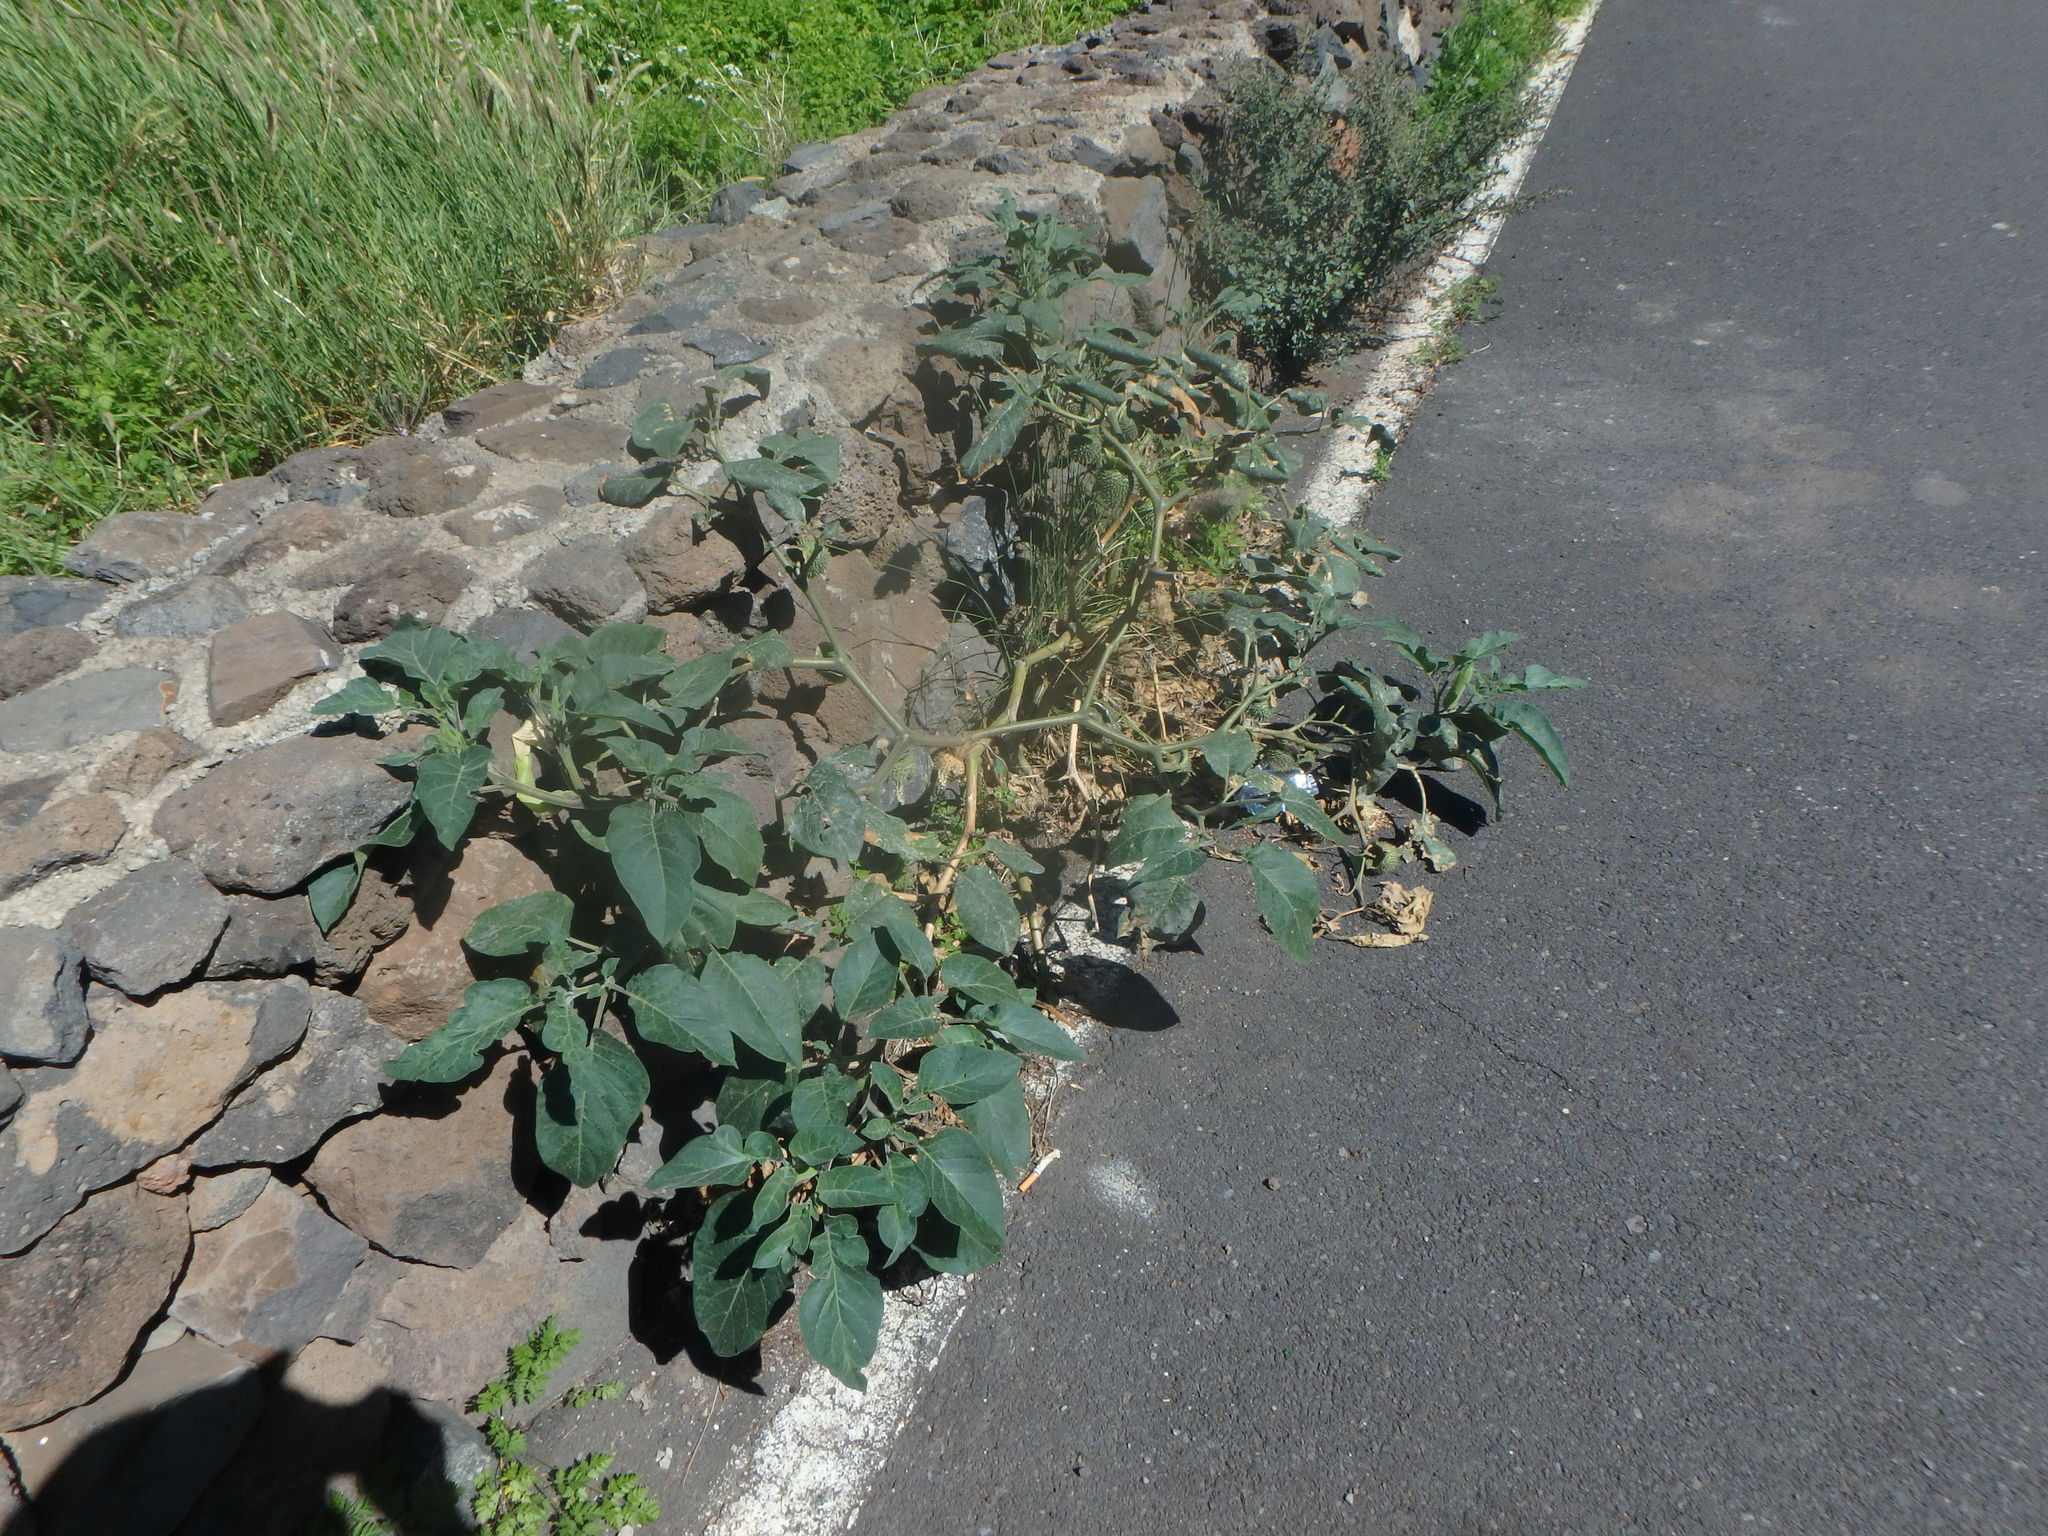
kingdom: Plantae
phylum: Tracheophyta
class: Magnoliopsida
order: Solanales
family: Solanaceae
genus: Datura
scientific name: Datura innoxia
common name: Downy thorn-apple
